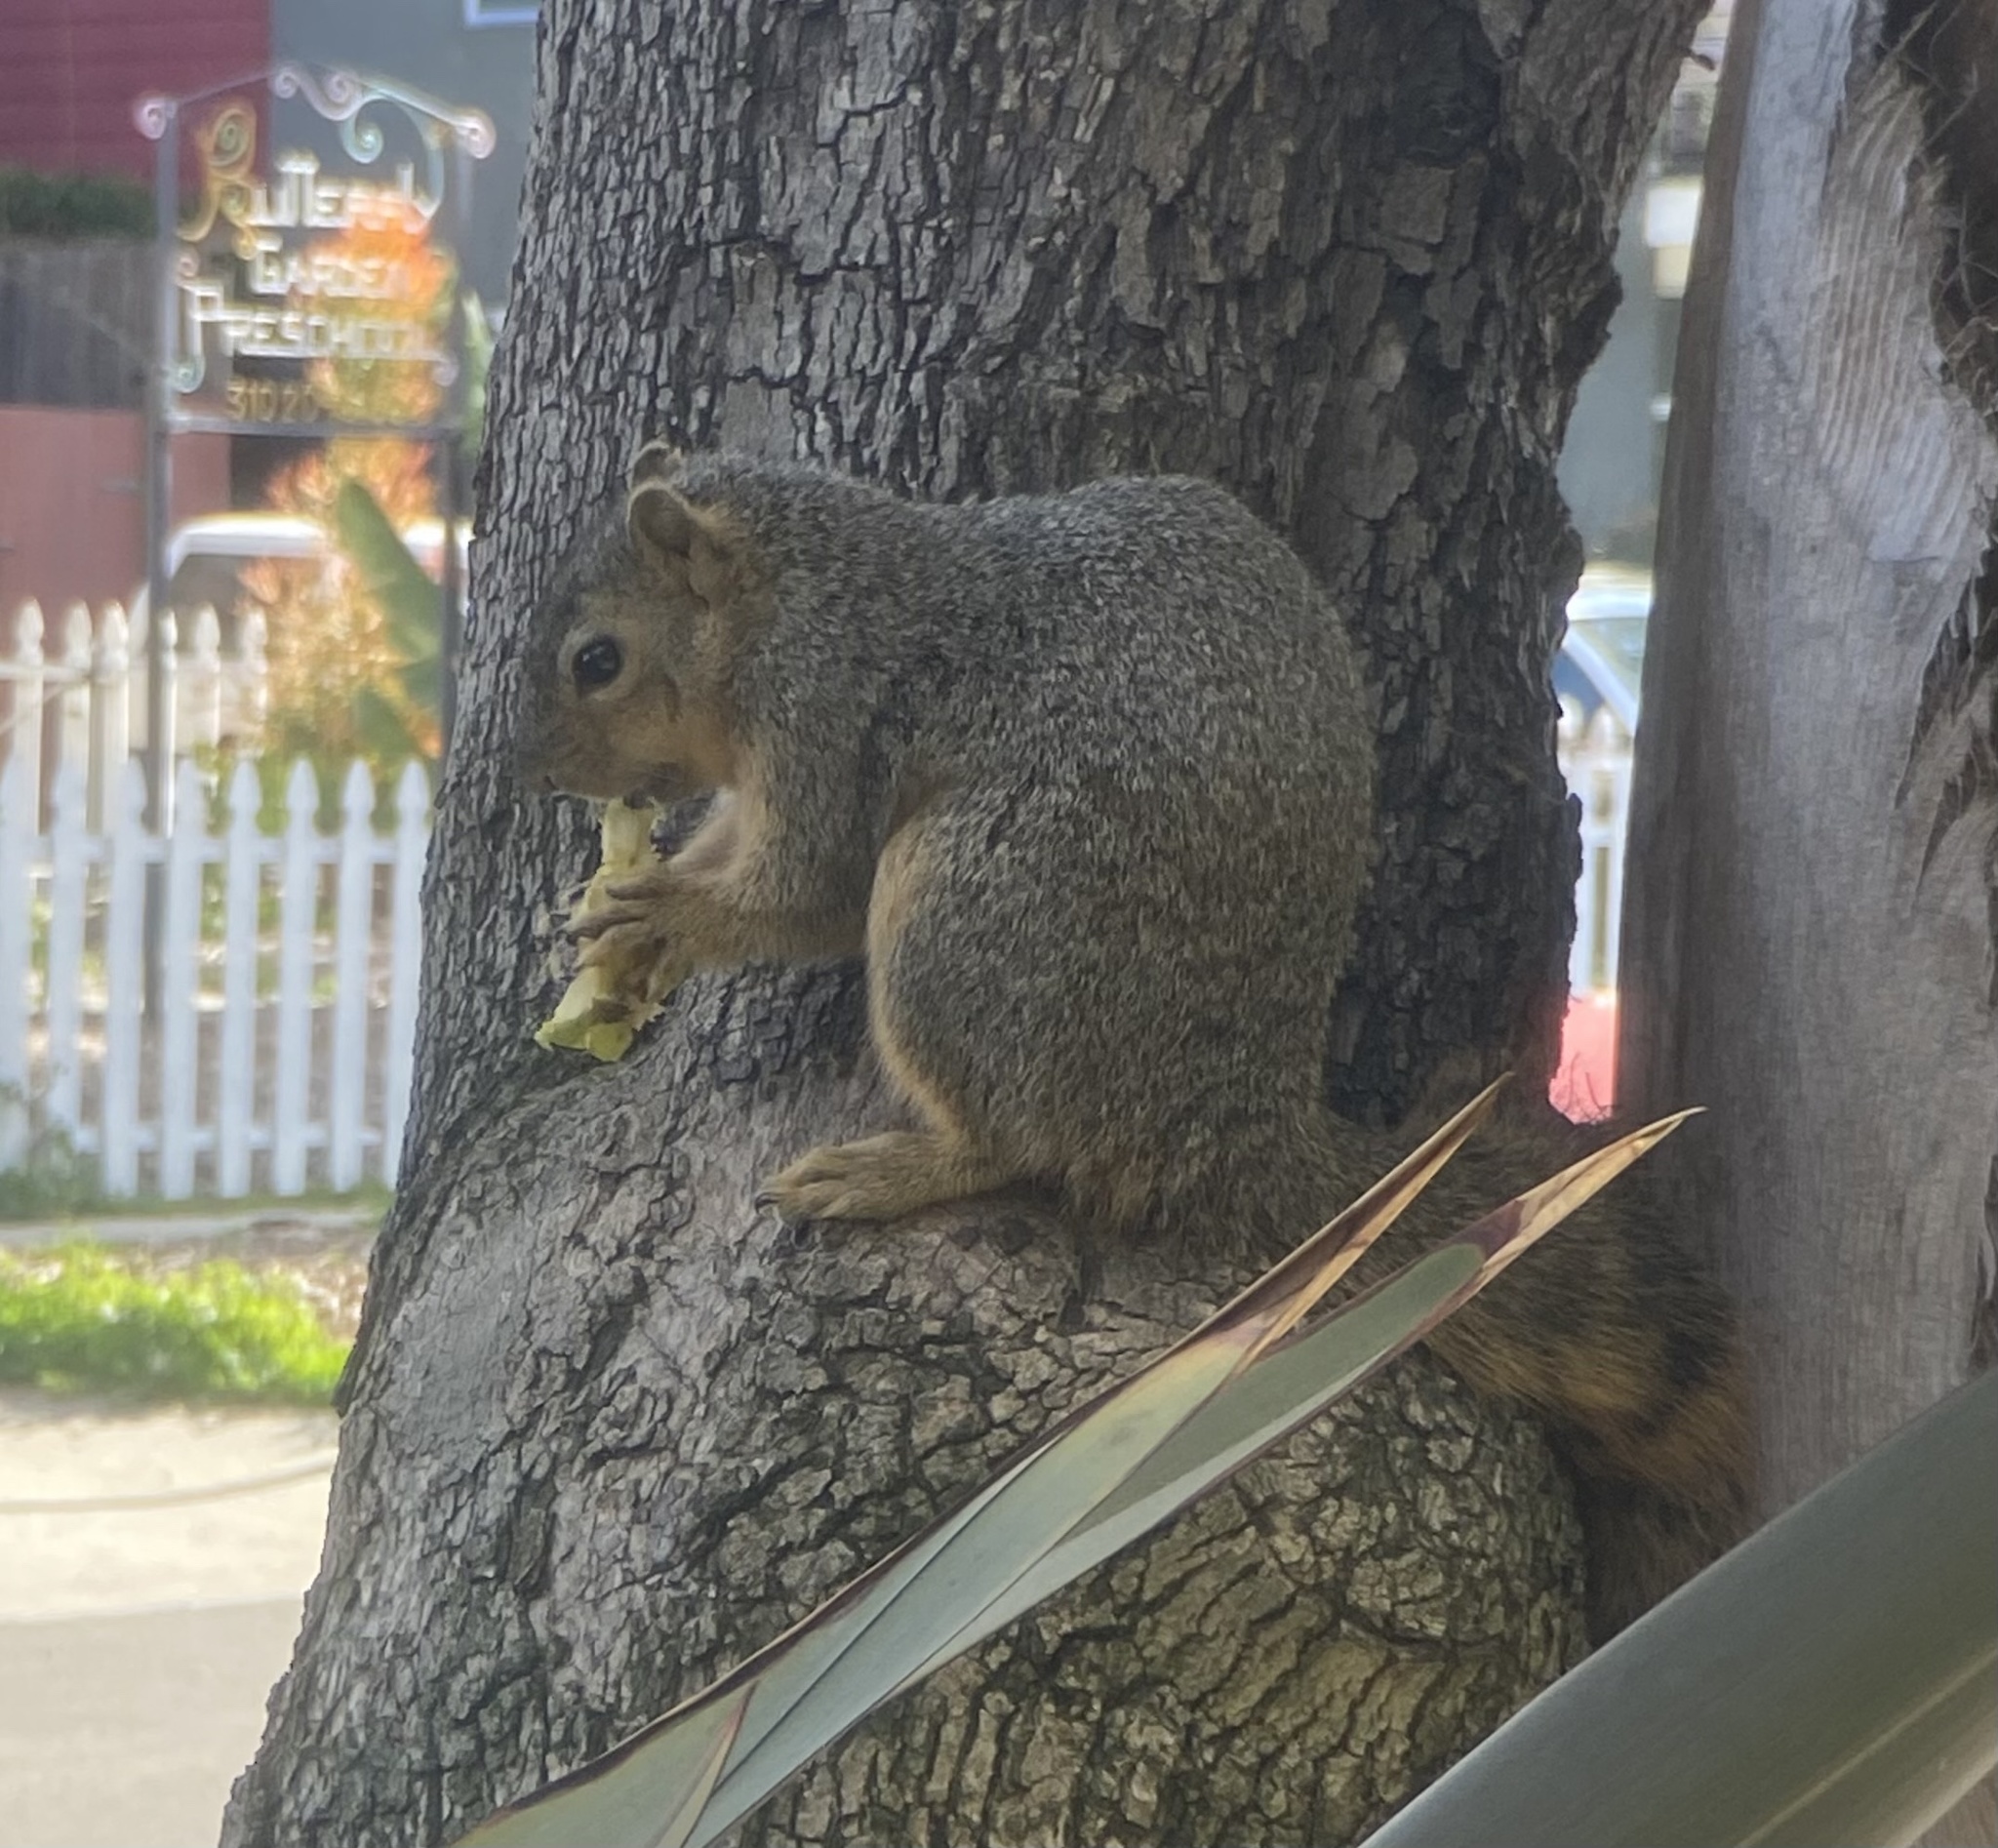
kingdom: Animalia
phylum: Chordata
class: Mammalia
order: Rodentia
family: Sciuridae
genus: Sciurus
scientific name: Sciurus niger
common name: Fox squirrel
